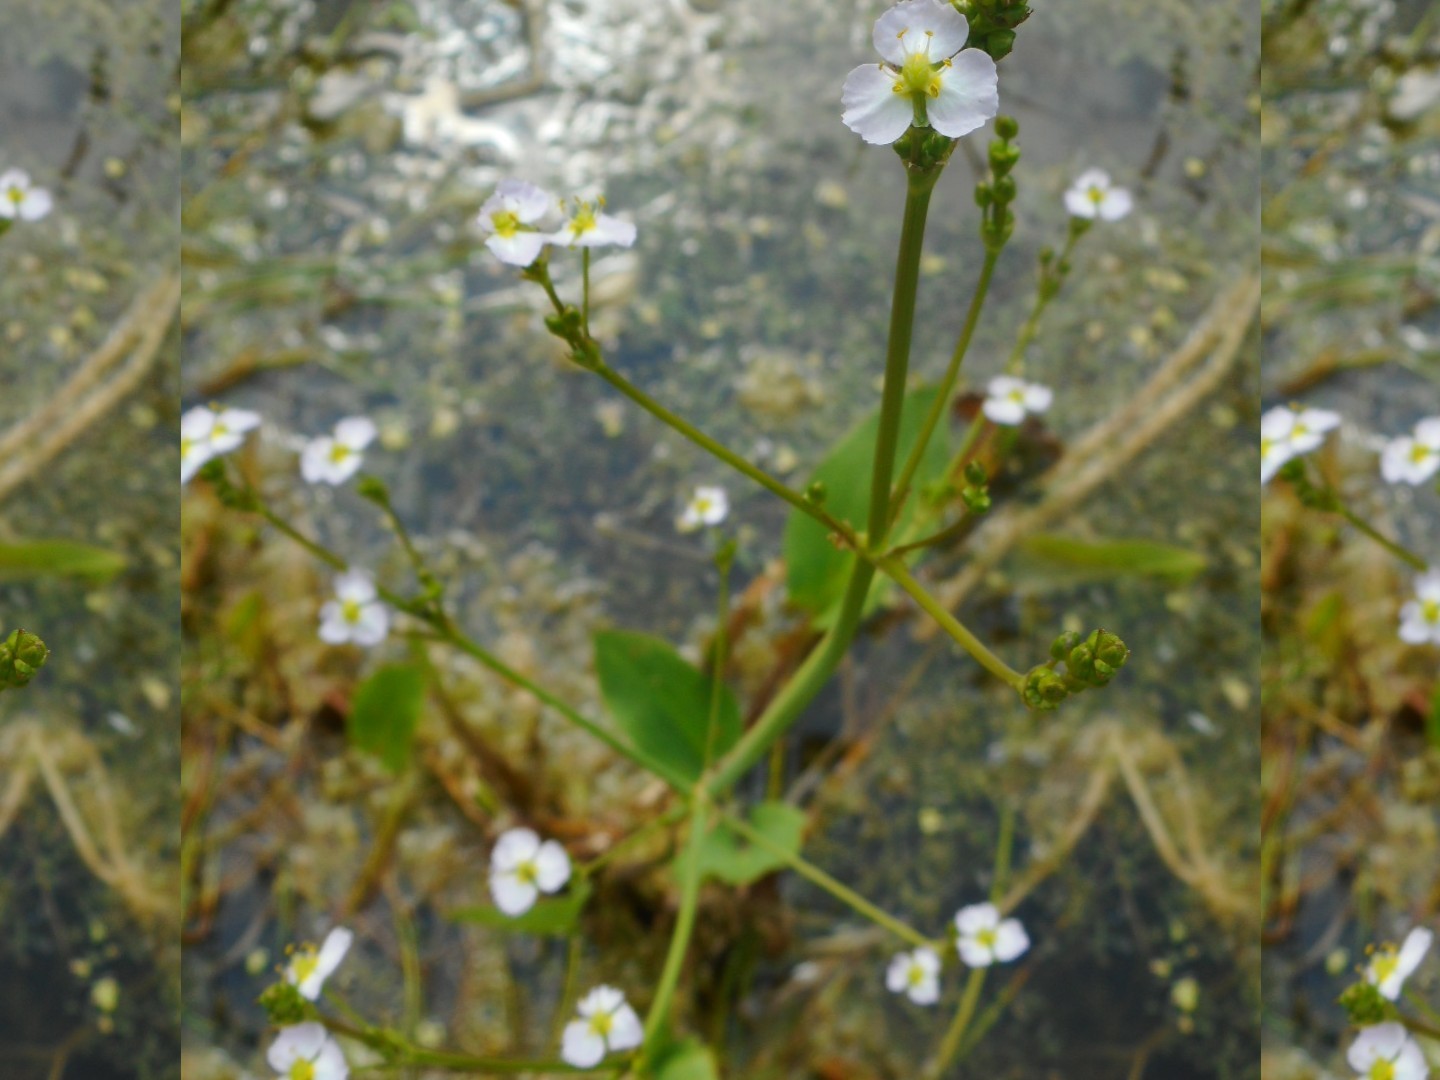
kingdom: Plantae
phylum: Tracheophyta
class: Liliopsida
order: Alismatales
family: Alismataceae
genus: Alisma
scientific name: Alisma plantago-aquatica
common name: Water-plantain
